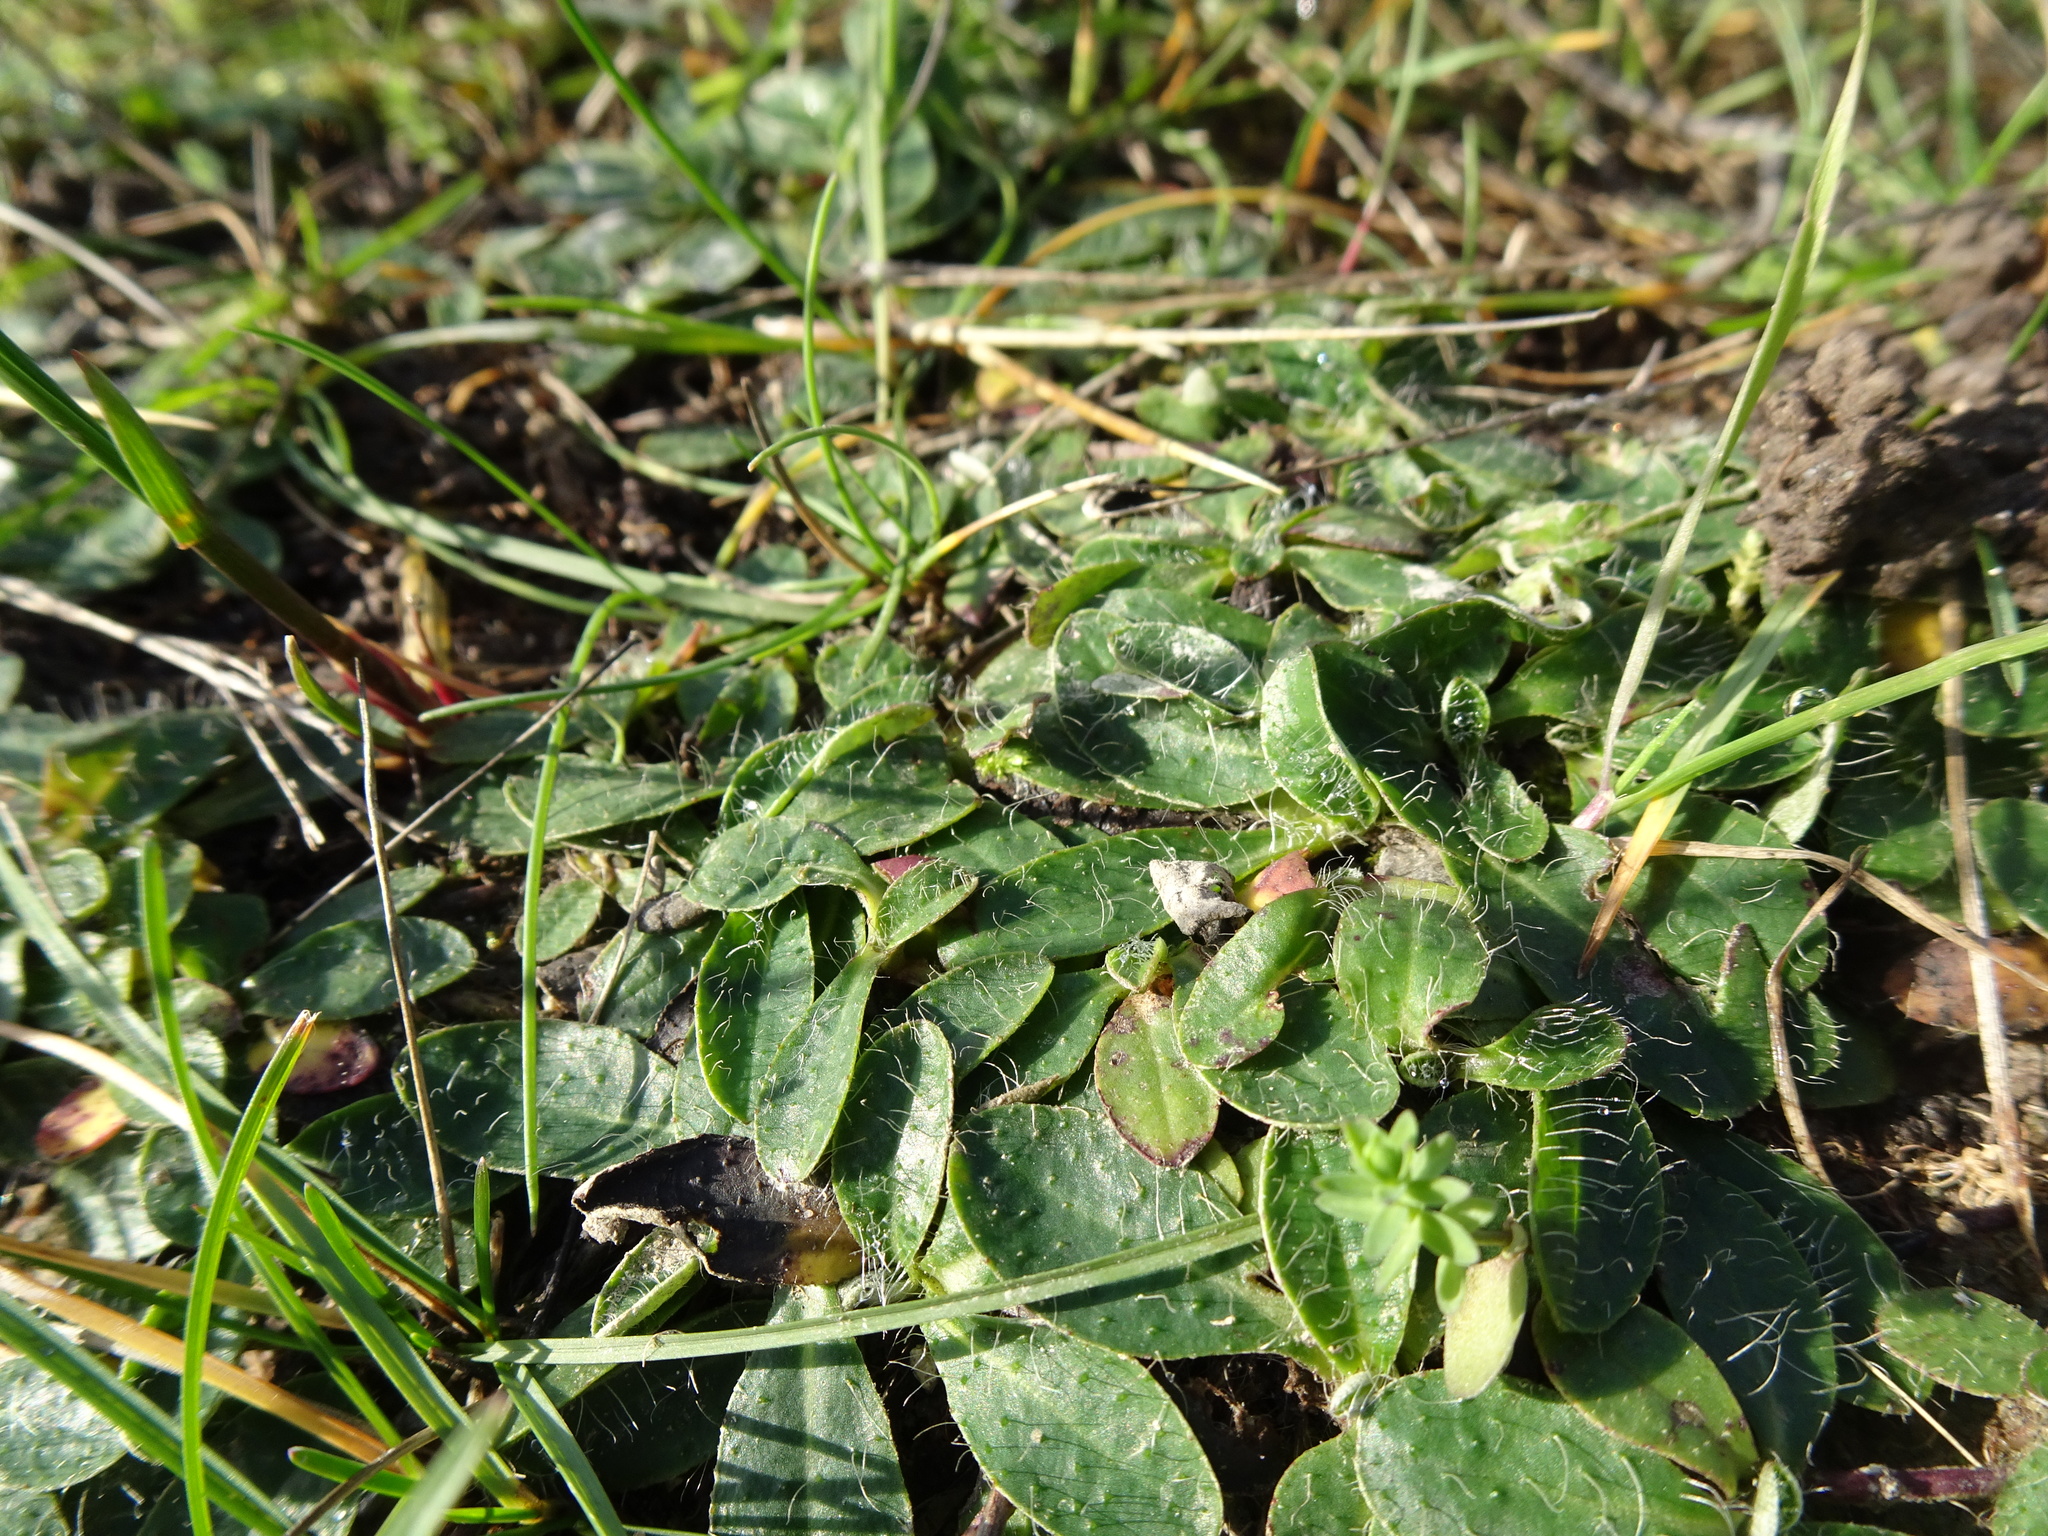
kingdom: Plantae
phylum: Tracheophyta
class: Magnoliopsida
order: Asterales
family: Asteraceae
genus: Pilosella
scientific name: Pilosella officinarum
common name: Mouse-ear hawkweed
